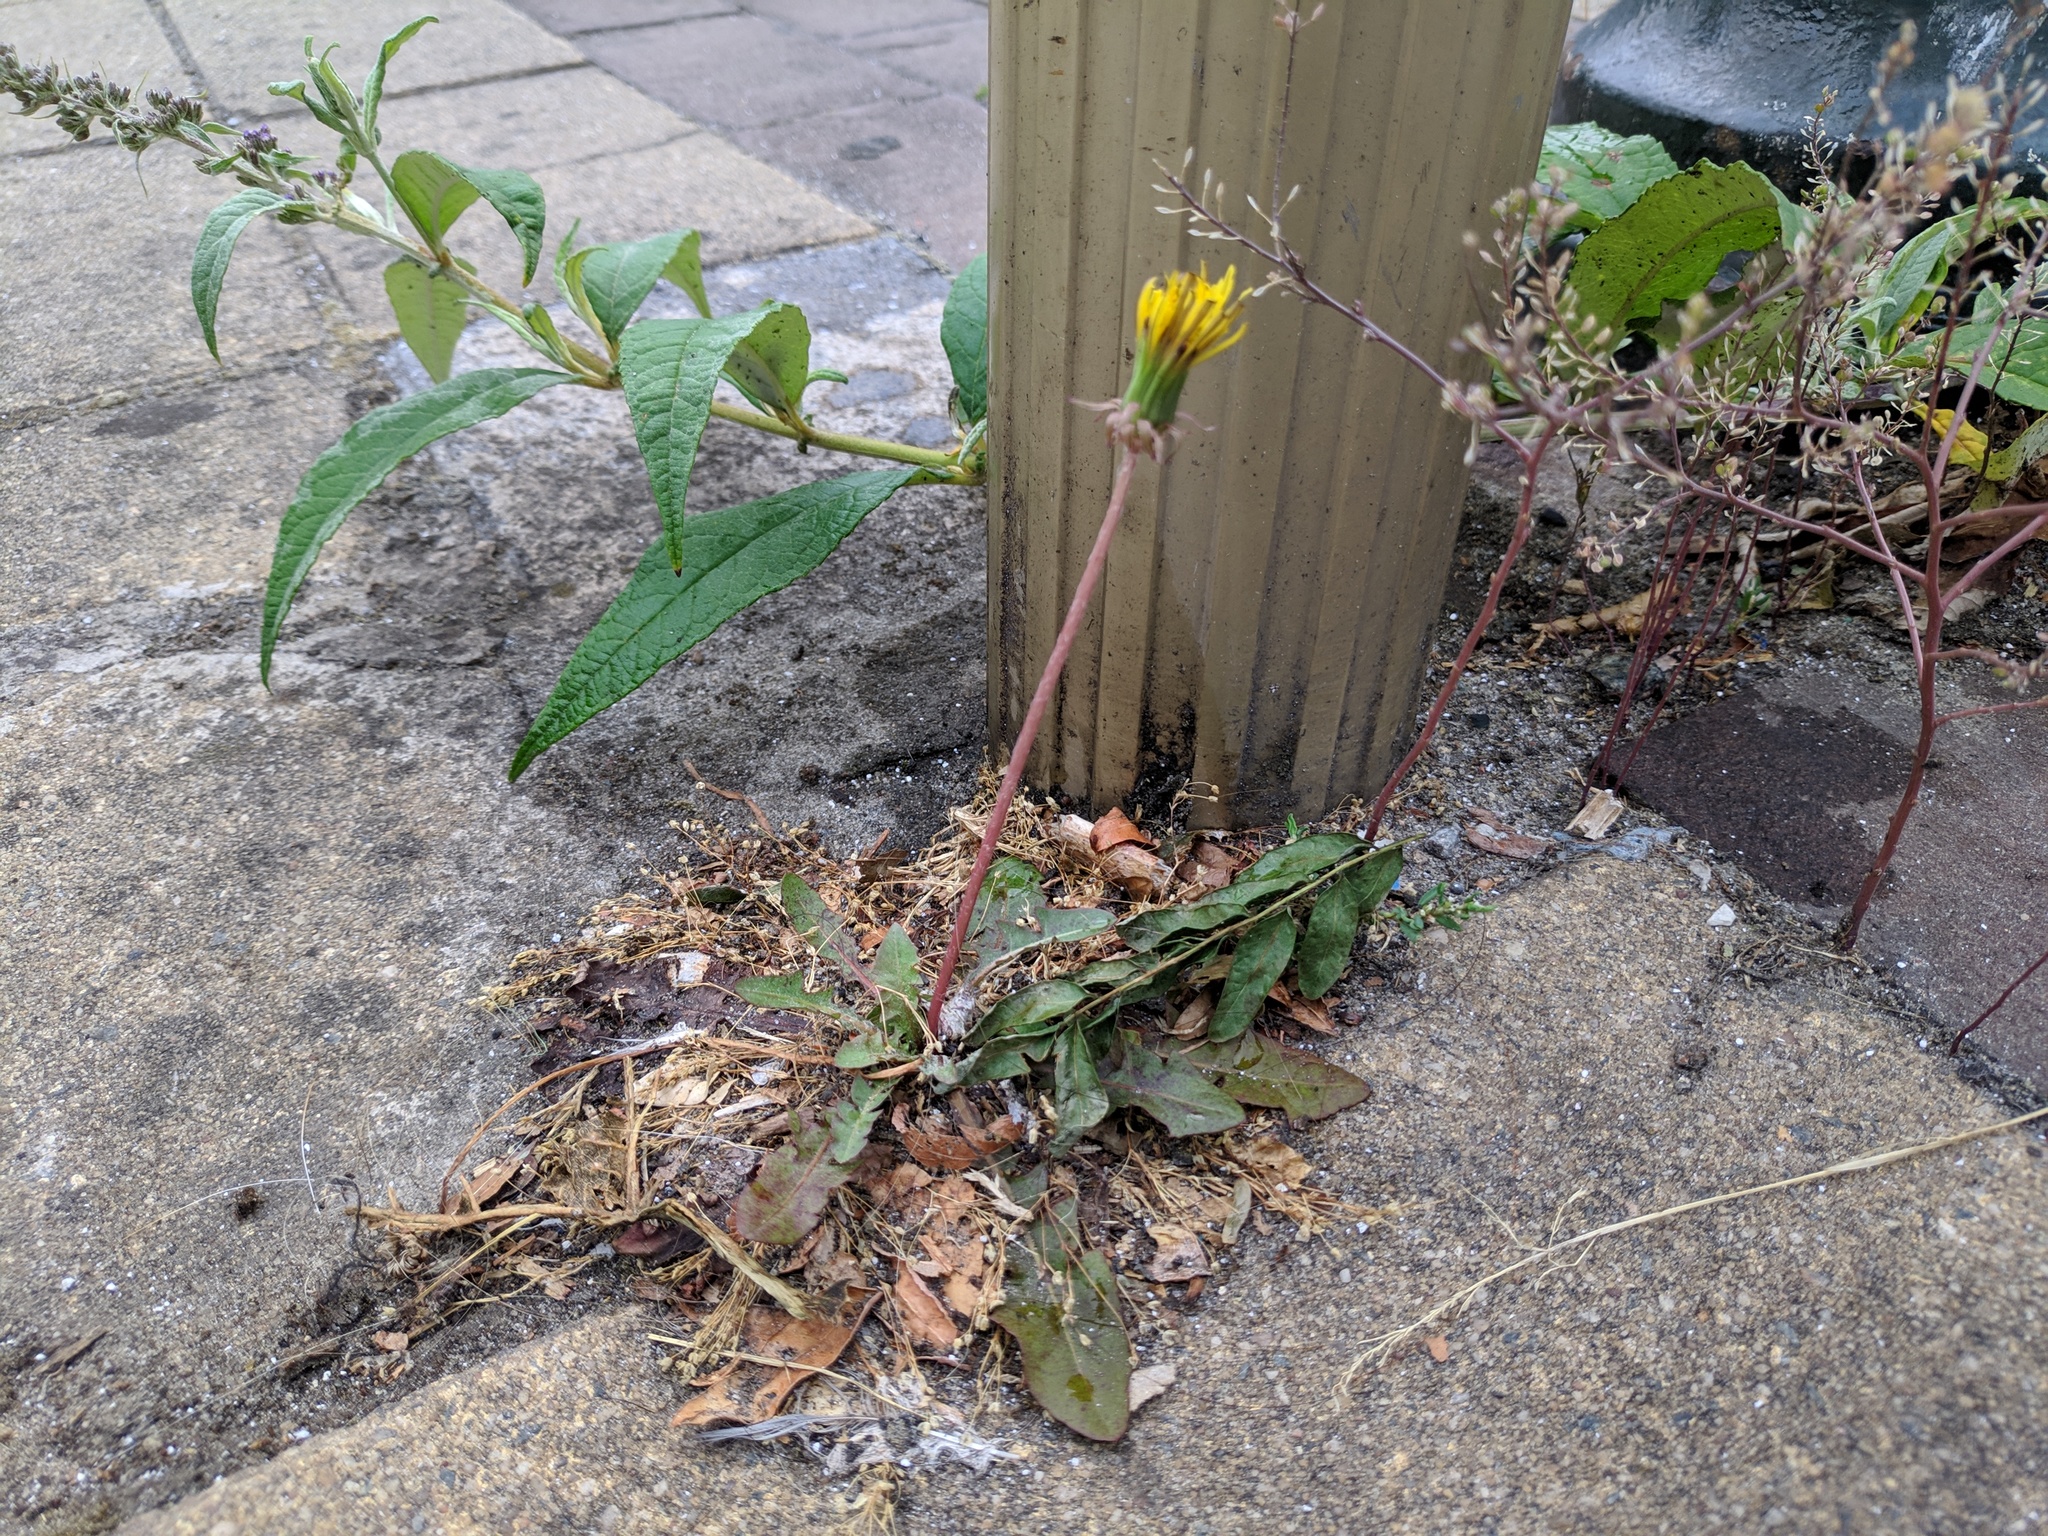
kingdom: Plantae
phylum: Tracheophyta
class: Magnoliopsida
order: Asterales
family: Asteraceae
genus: Taraxacum
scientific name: Taraxacum officinale
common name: Common dandelion
